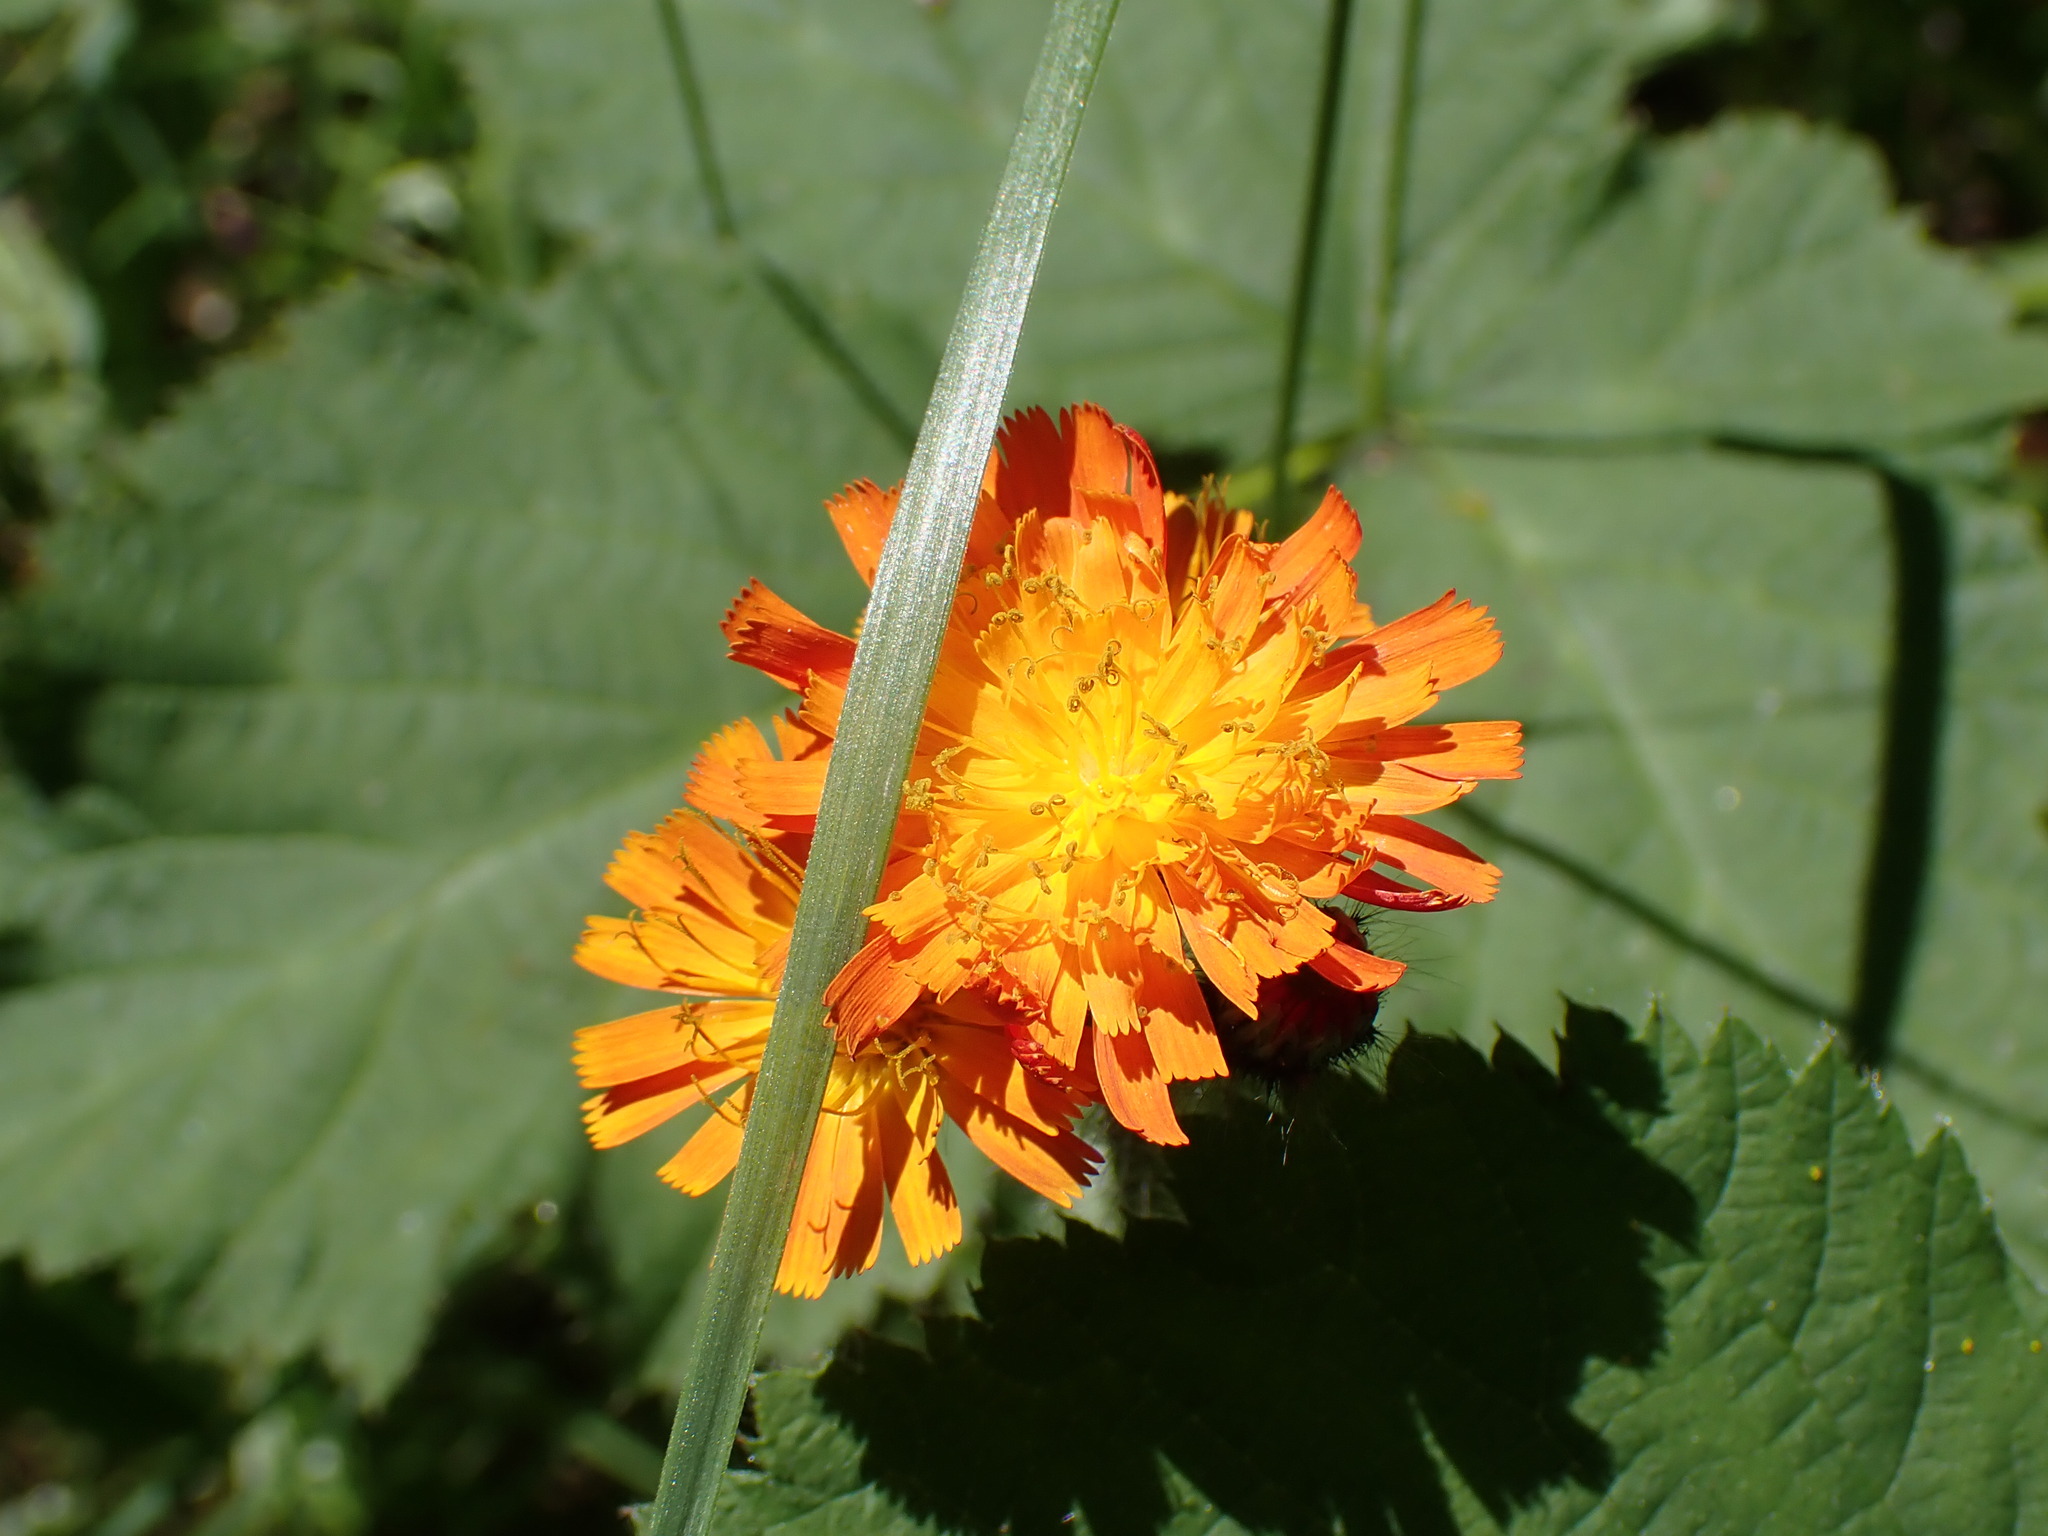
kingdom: Plantae
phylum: Tracheophyta
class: Magnoliopsida
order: Asterales
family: Asteraceae
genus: Pilosella
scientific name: Pilosella aurantiaca
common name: Fox-and-cubs
